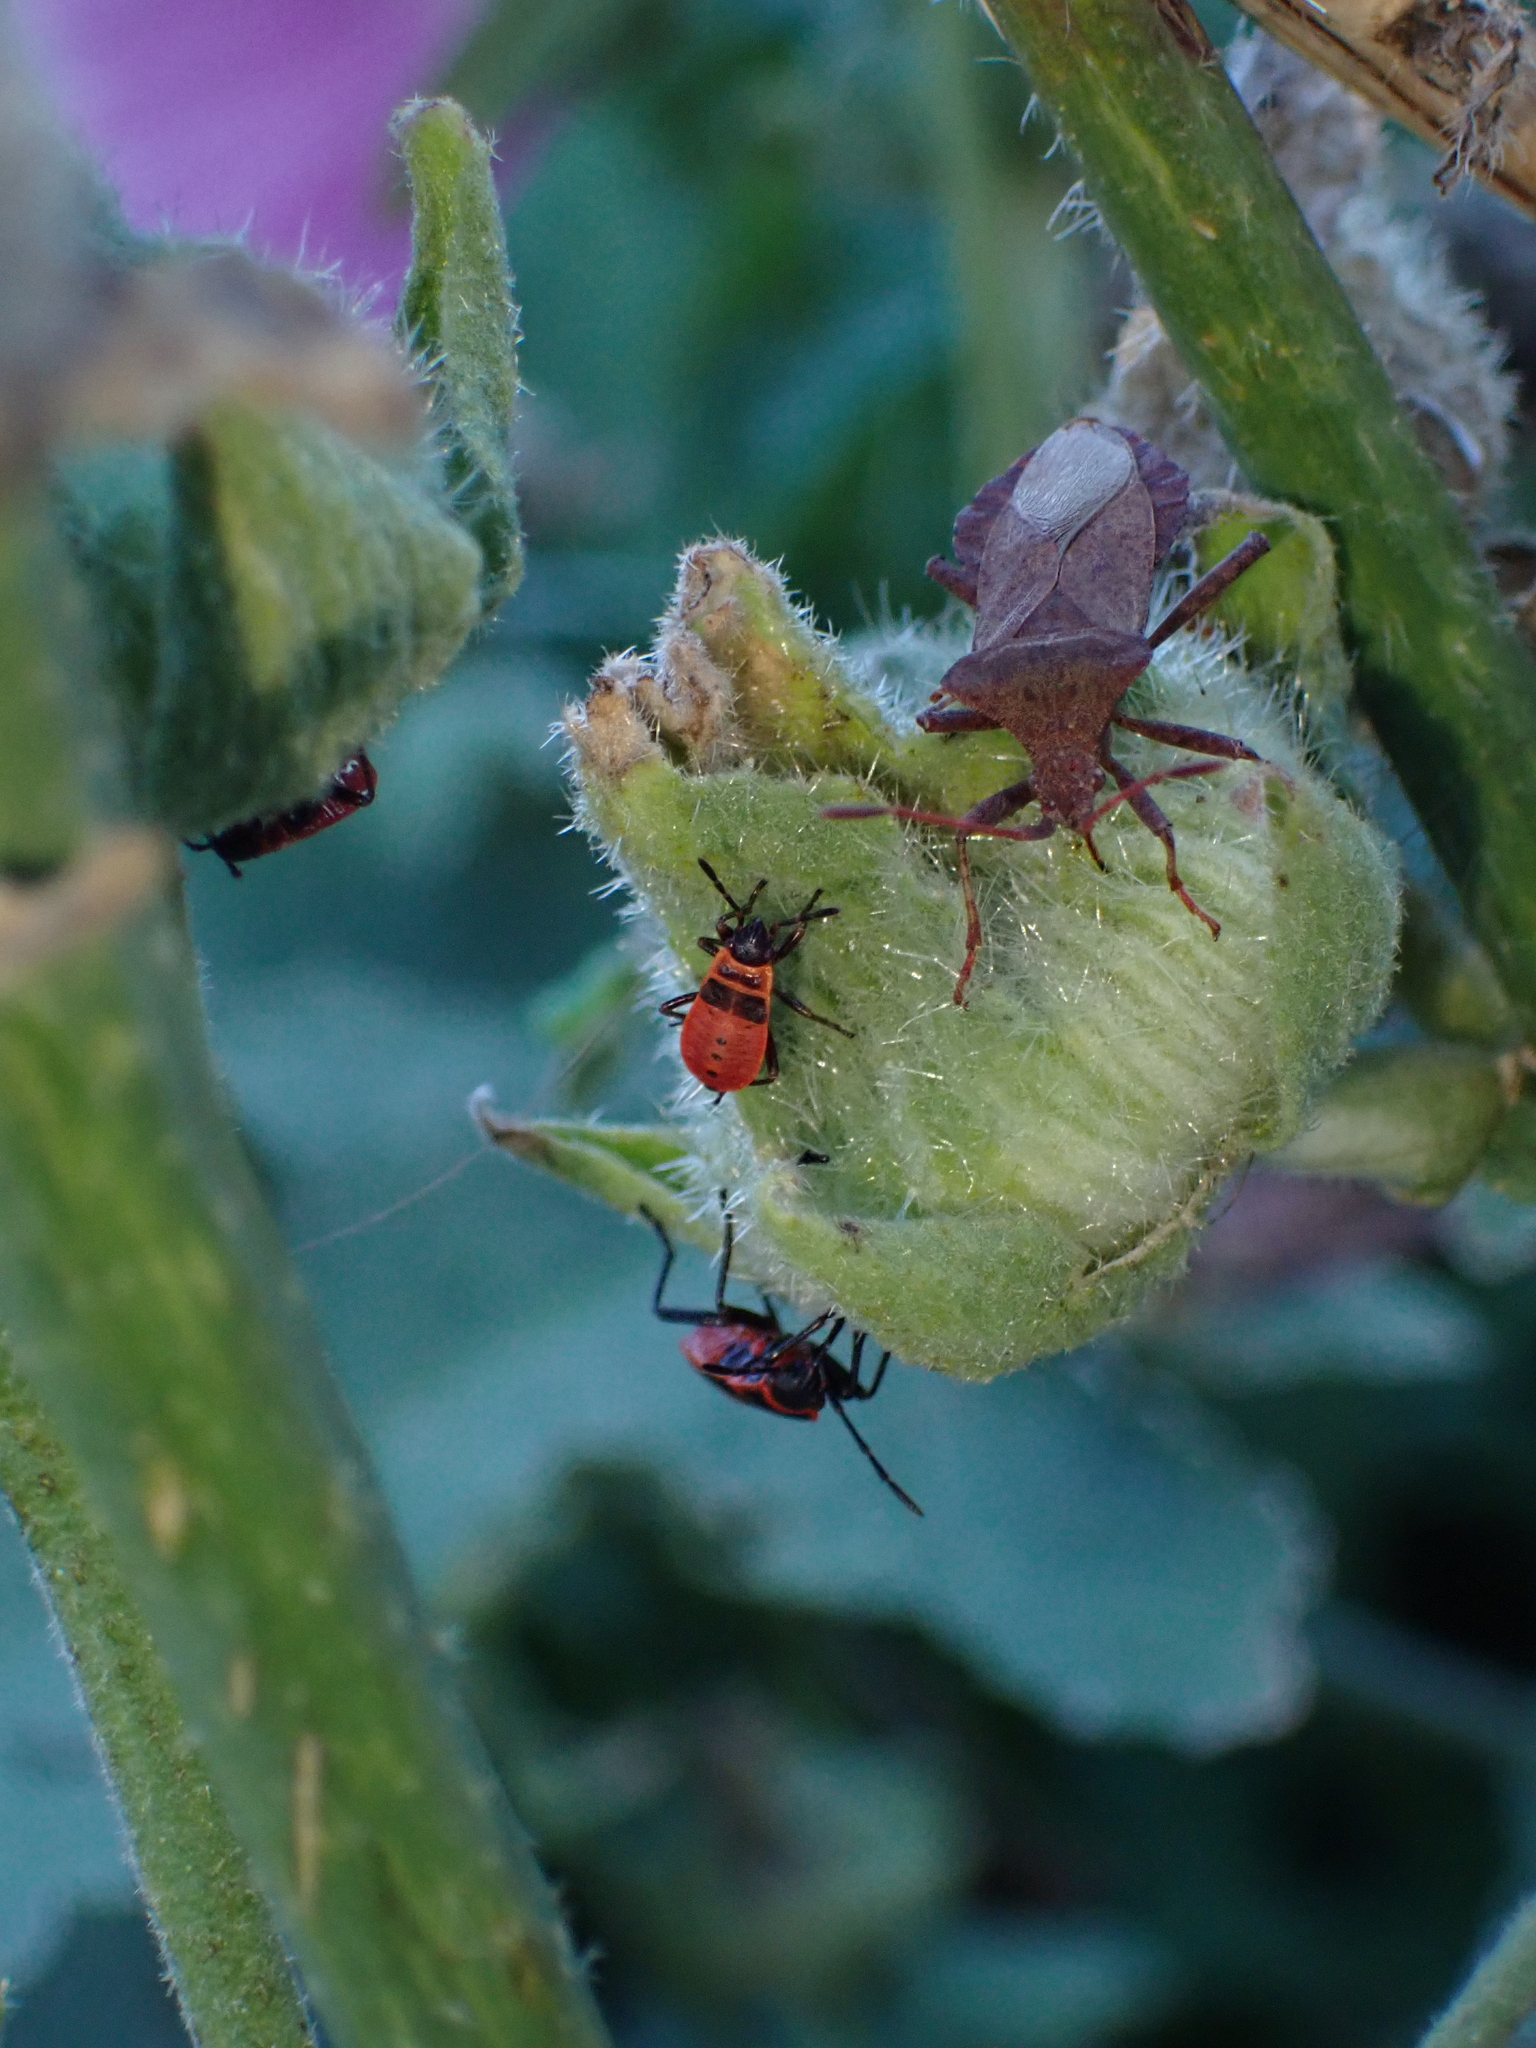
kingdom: Animalia
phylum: Arthropoda
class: Insecta
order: Hemiptera
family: Pyrrhocoridae
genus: Pyrrhocoris
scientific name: Pyrrhocoris apterus
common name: Firebug
